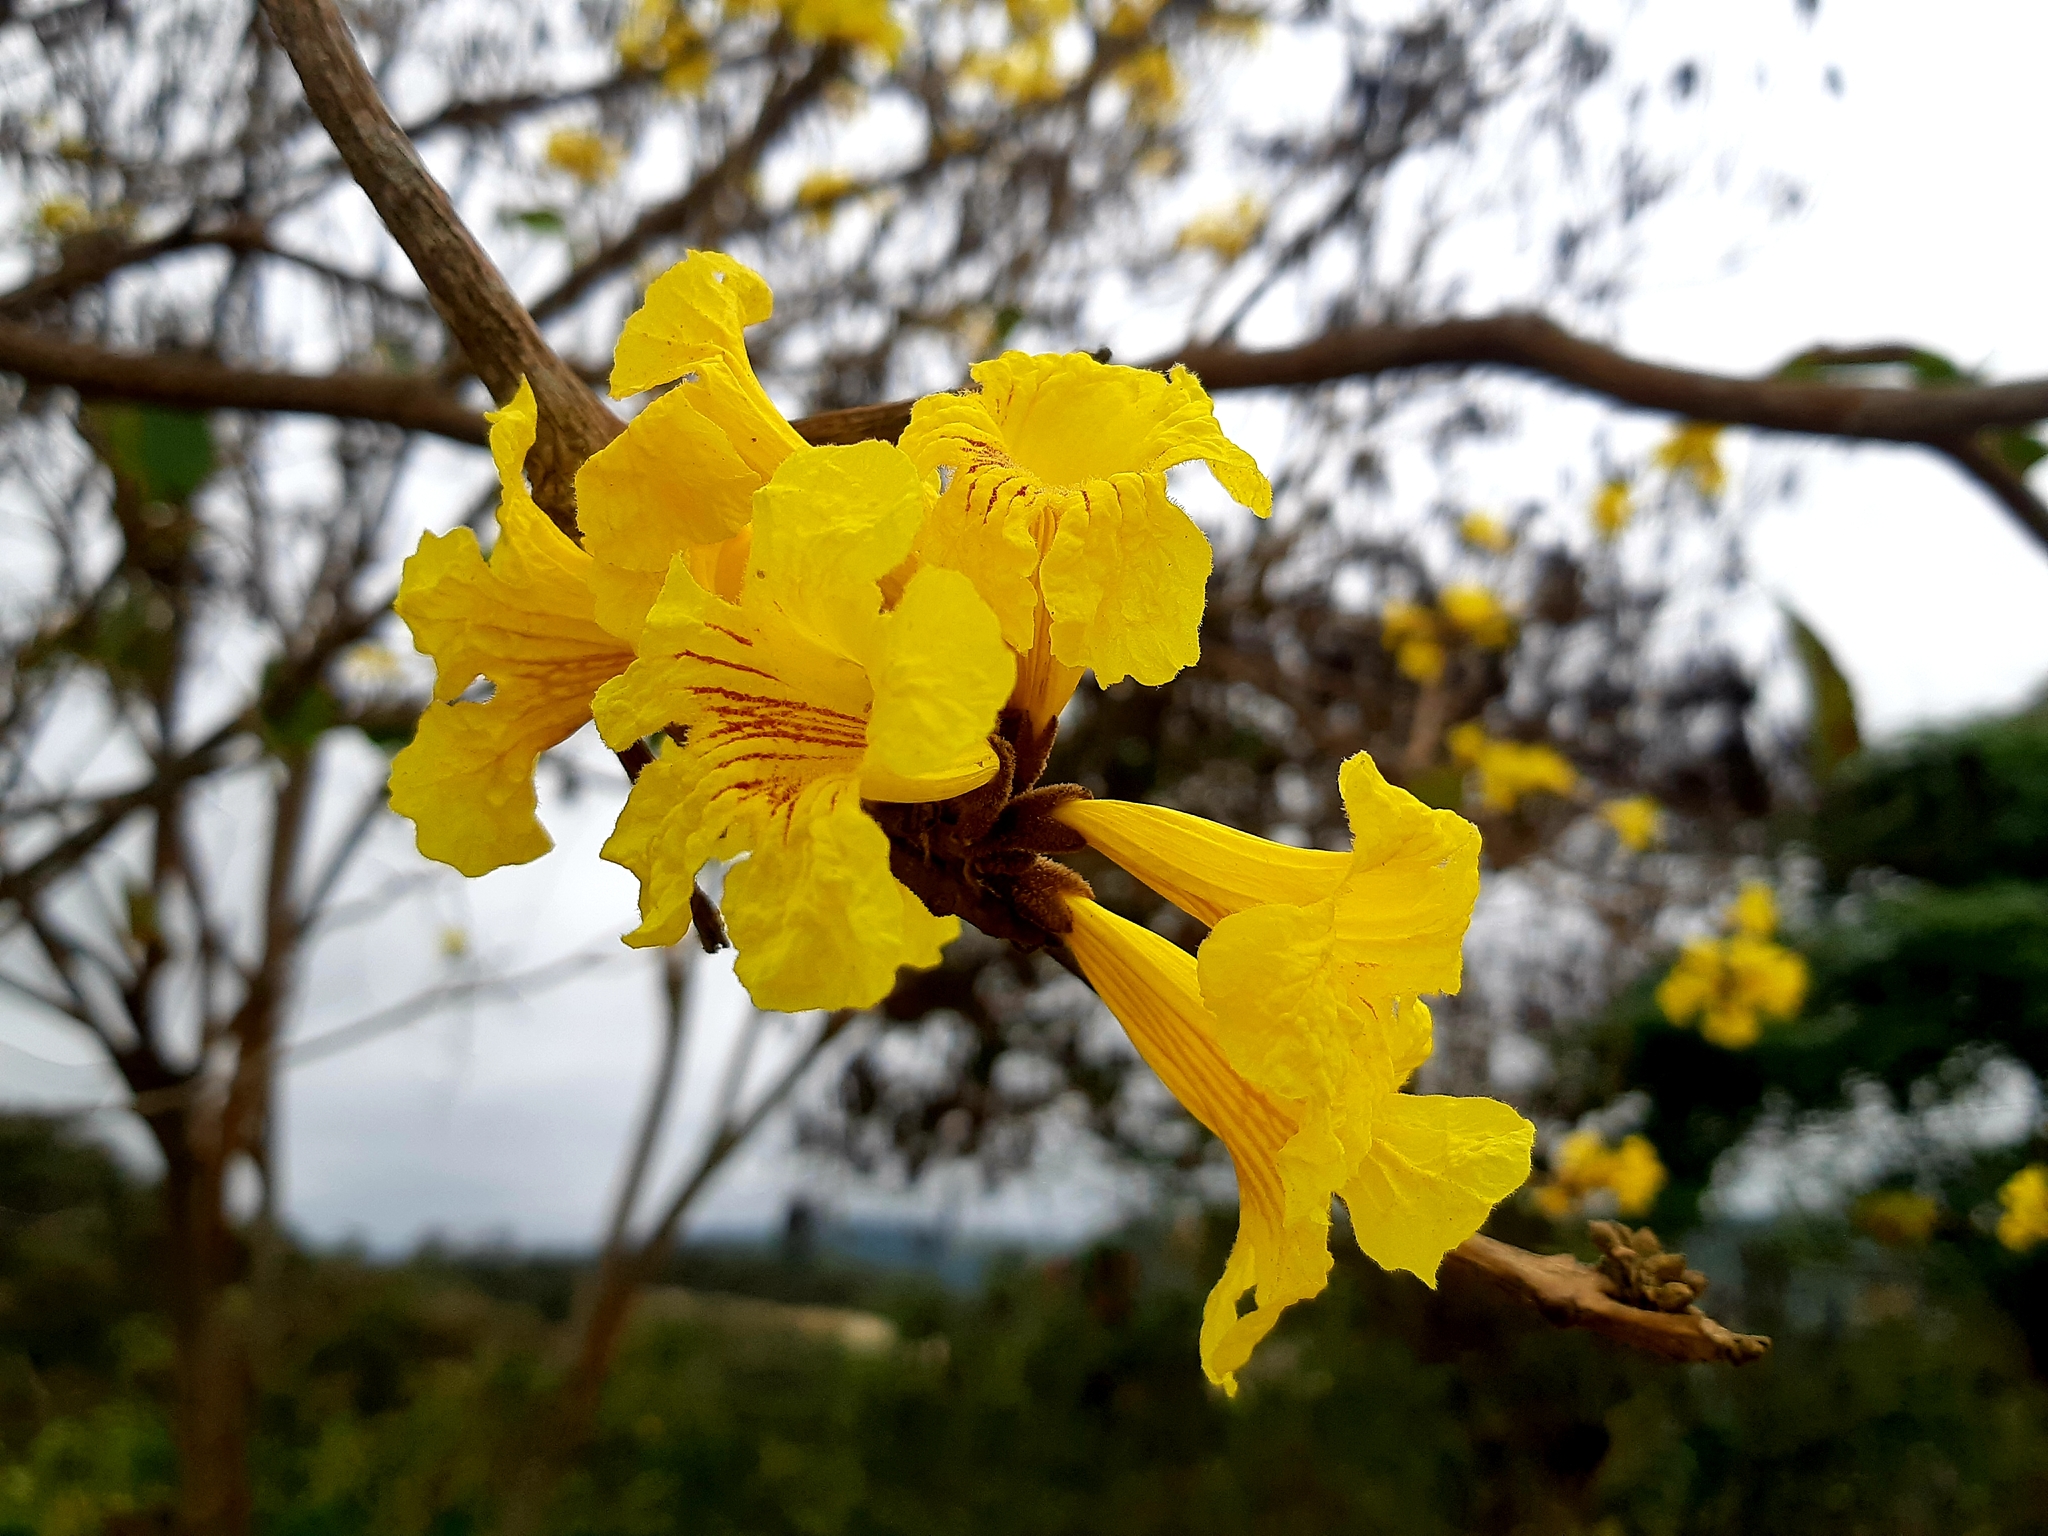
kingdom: Plantae
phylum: Tracheophyta
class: Magnoliopsida
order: Lamiales
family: Bignoniaceae
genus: Handroanthus
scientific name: Handroanthus chrysanthus
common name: Trumpet trees
